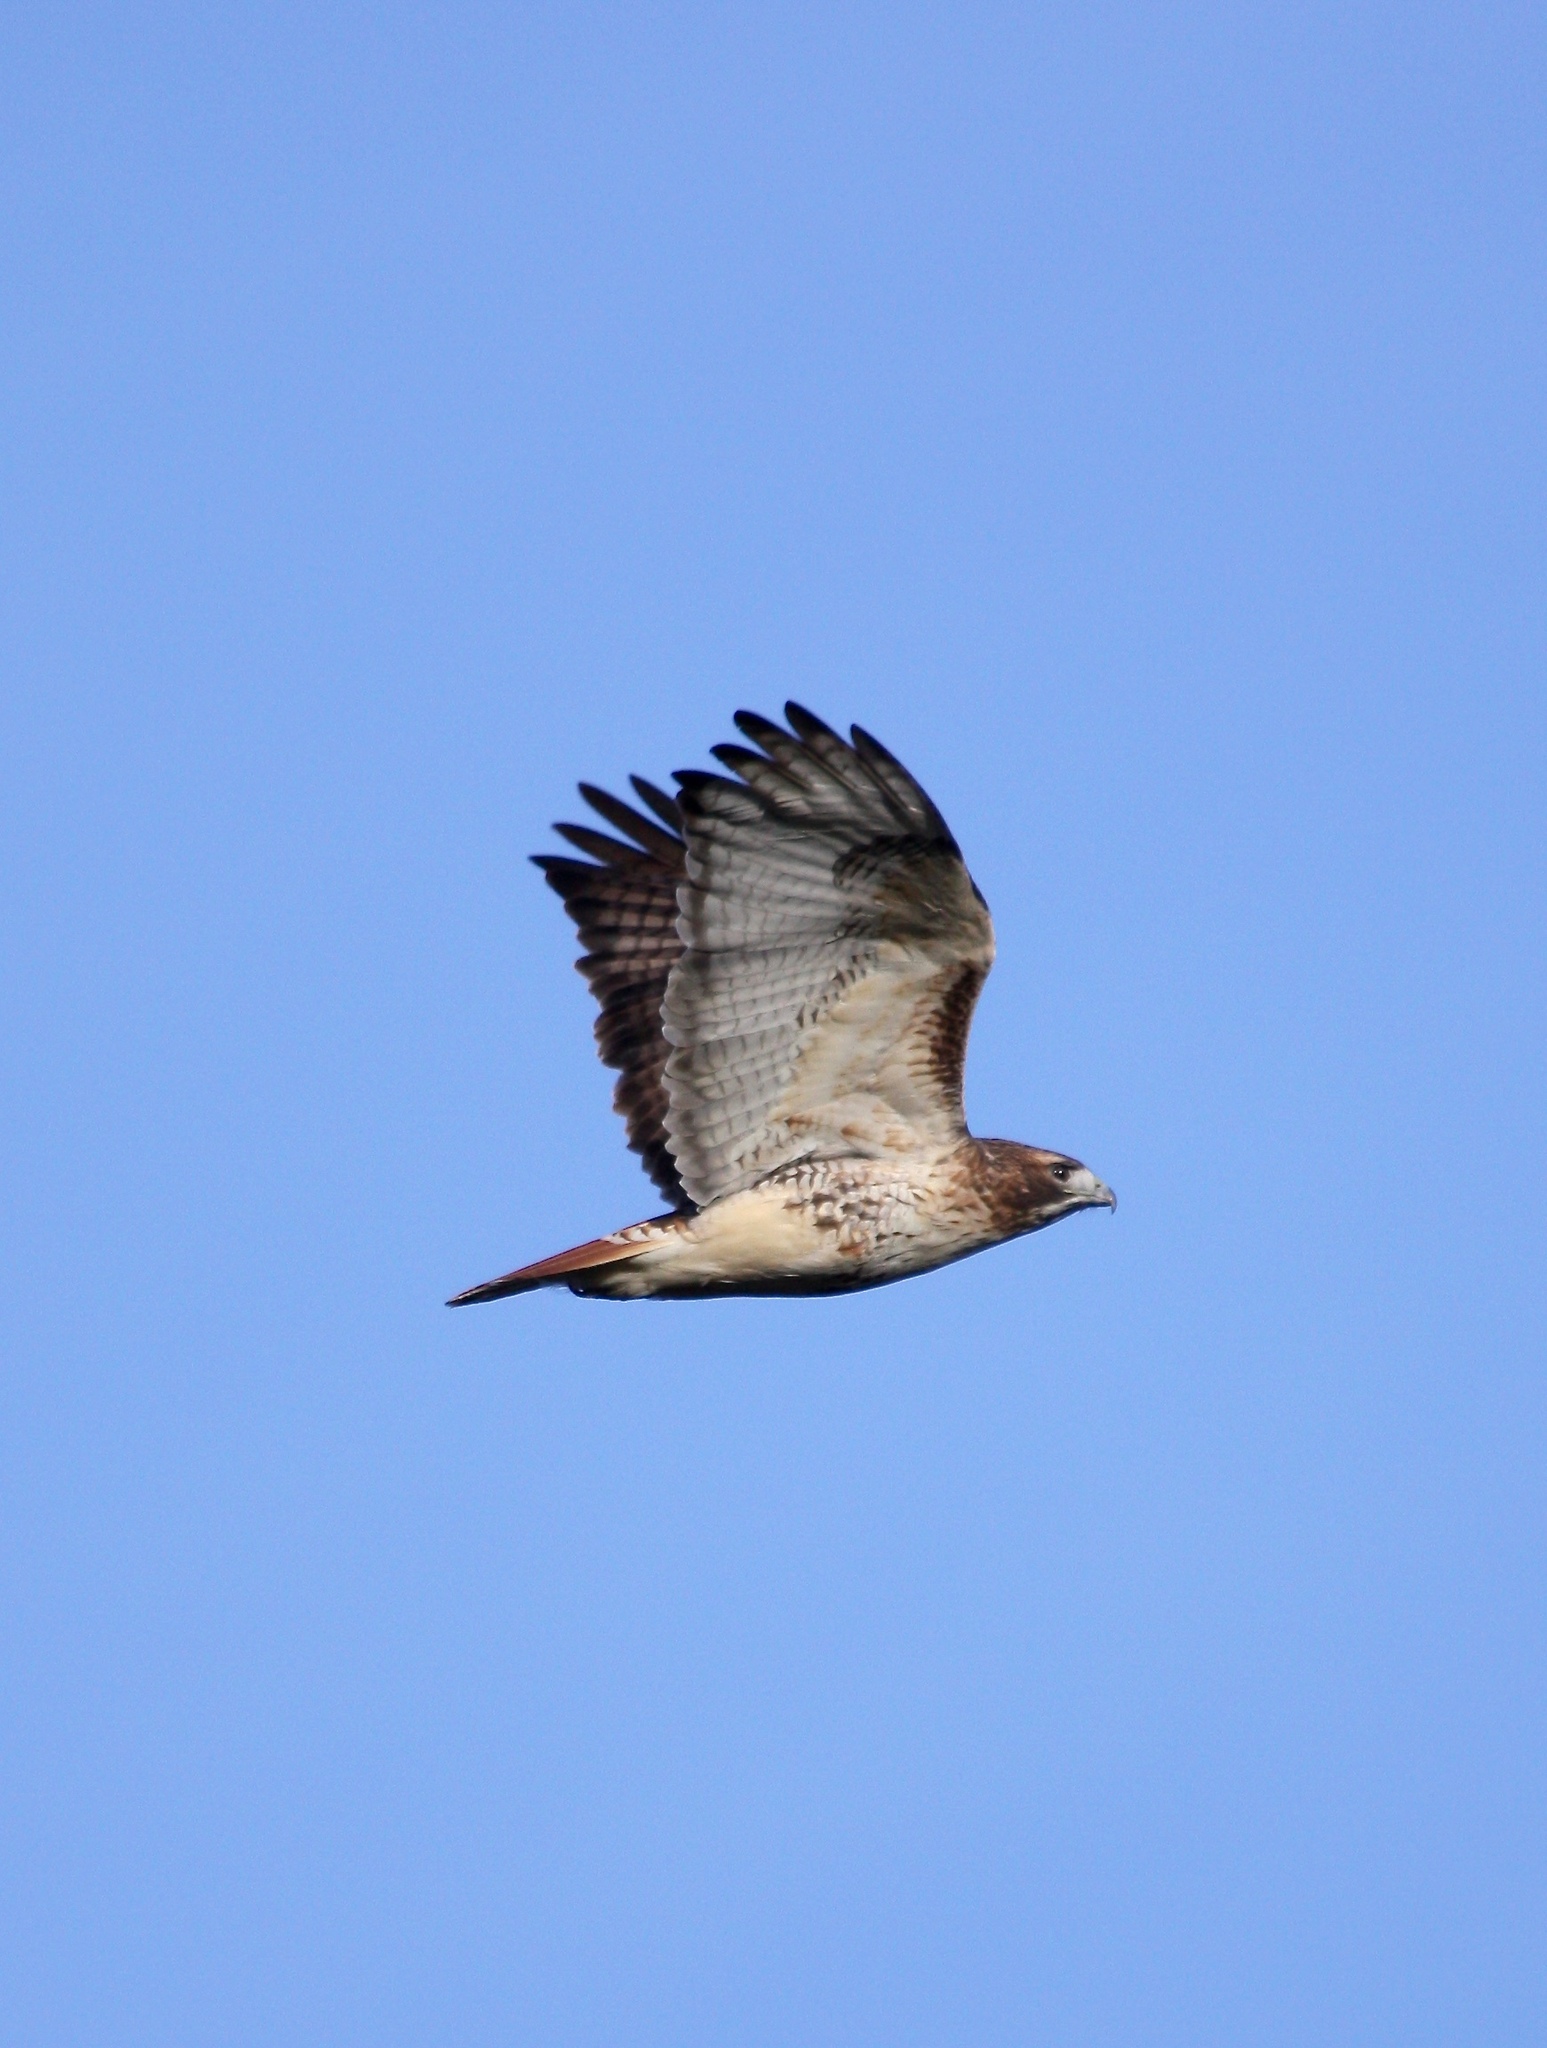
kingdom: Animalia
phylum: Chordata
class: Aves
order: Accipitriformes
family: Accipitridae
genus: Buteo
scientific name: Buteo jamaicensis
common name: Red-tailed hawk
